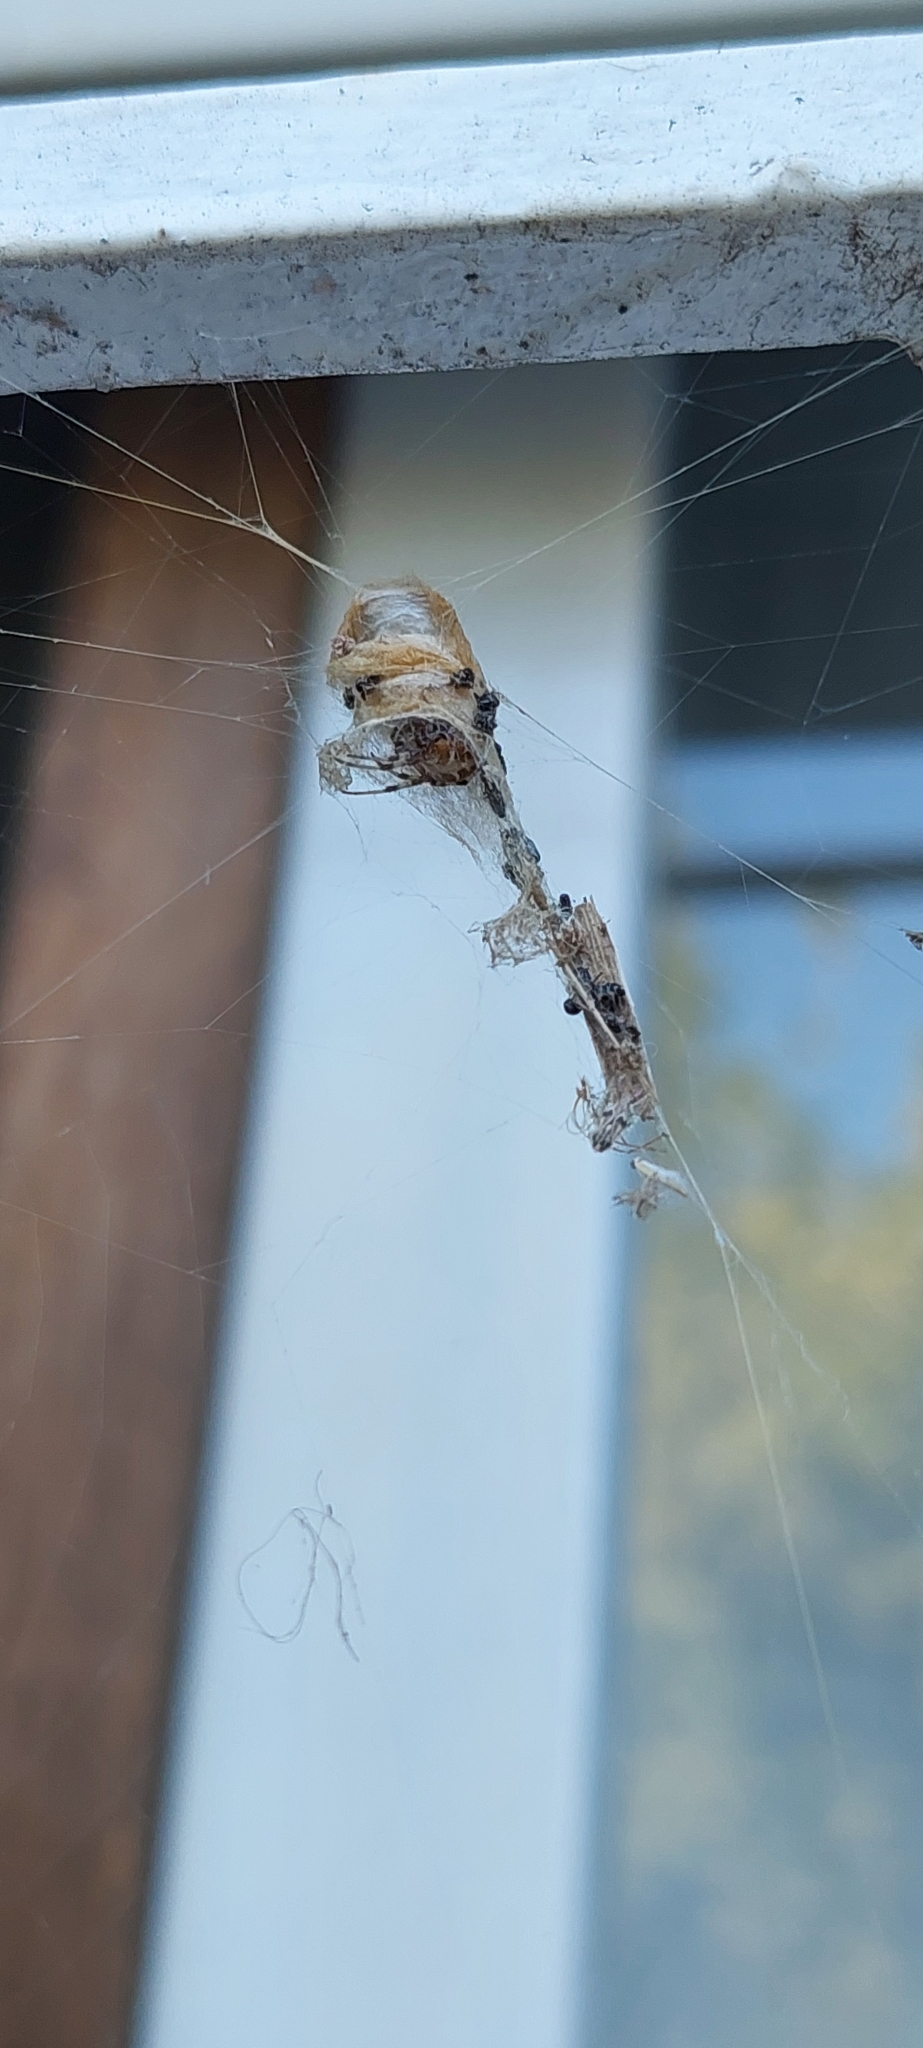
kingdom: Animalia
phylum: Arthropoda
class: Arachnida
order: Araneae
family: Araneidae
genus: Metepeira
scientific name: Metepeira
